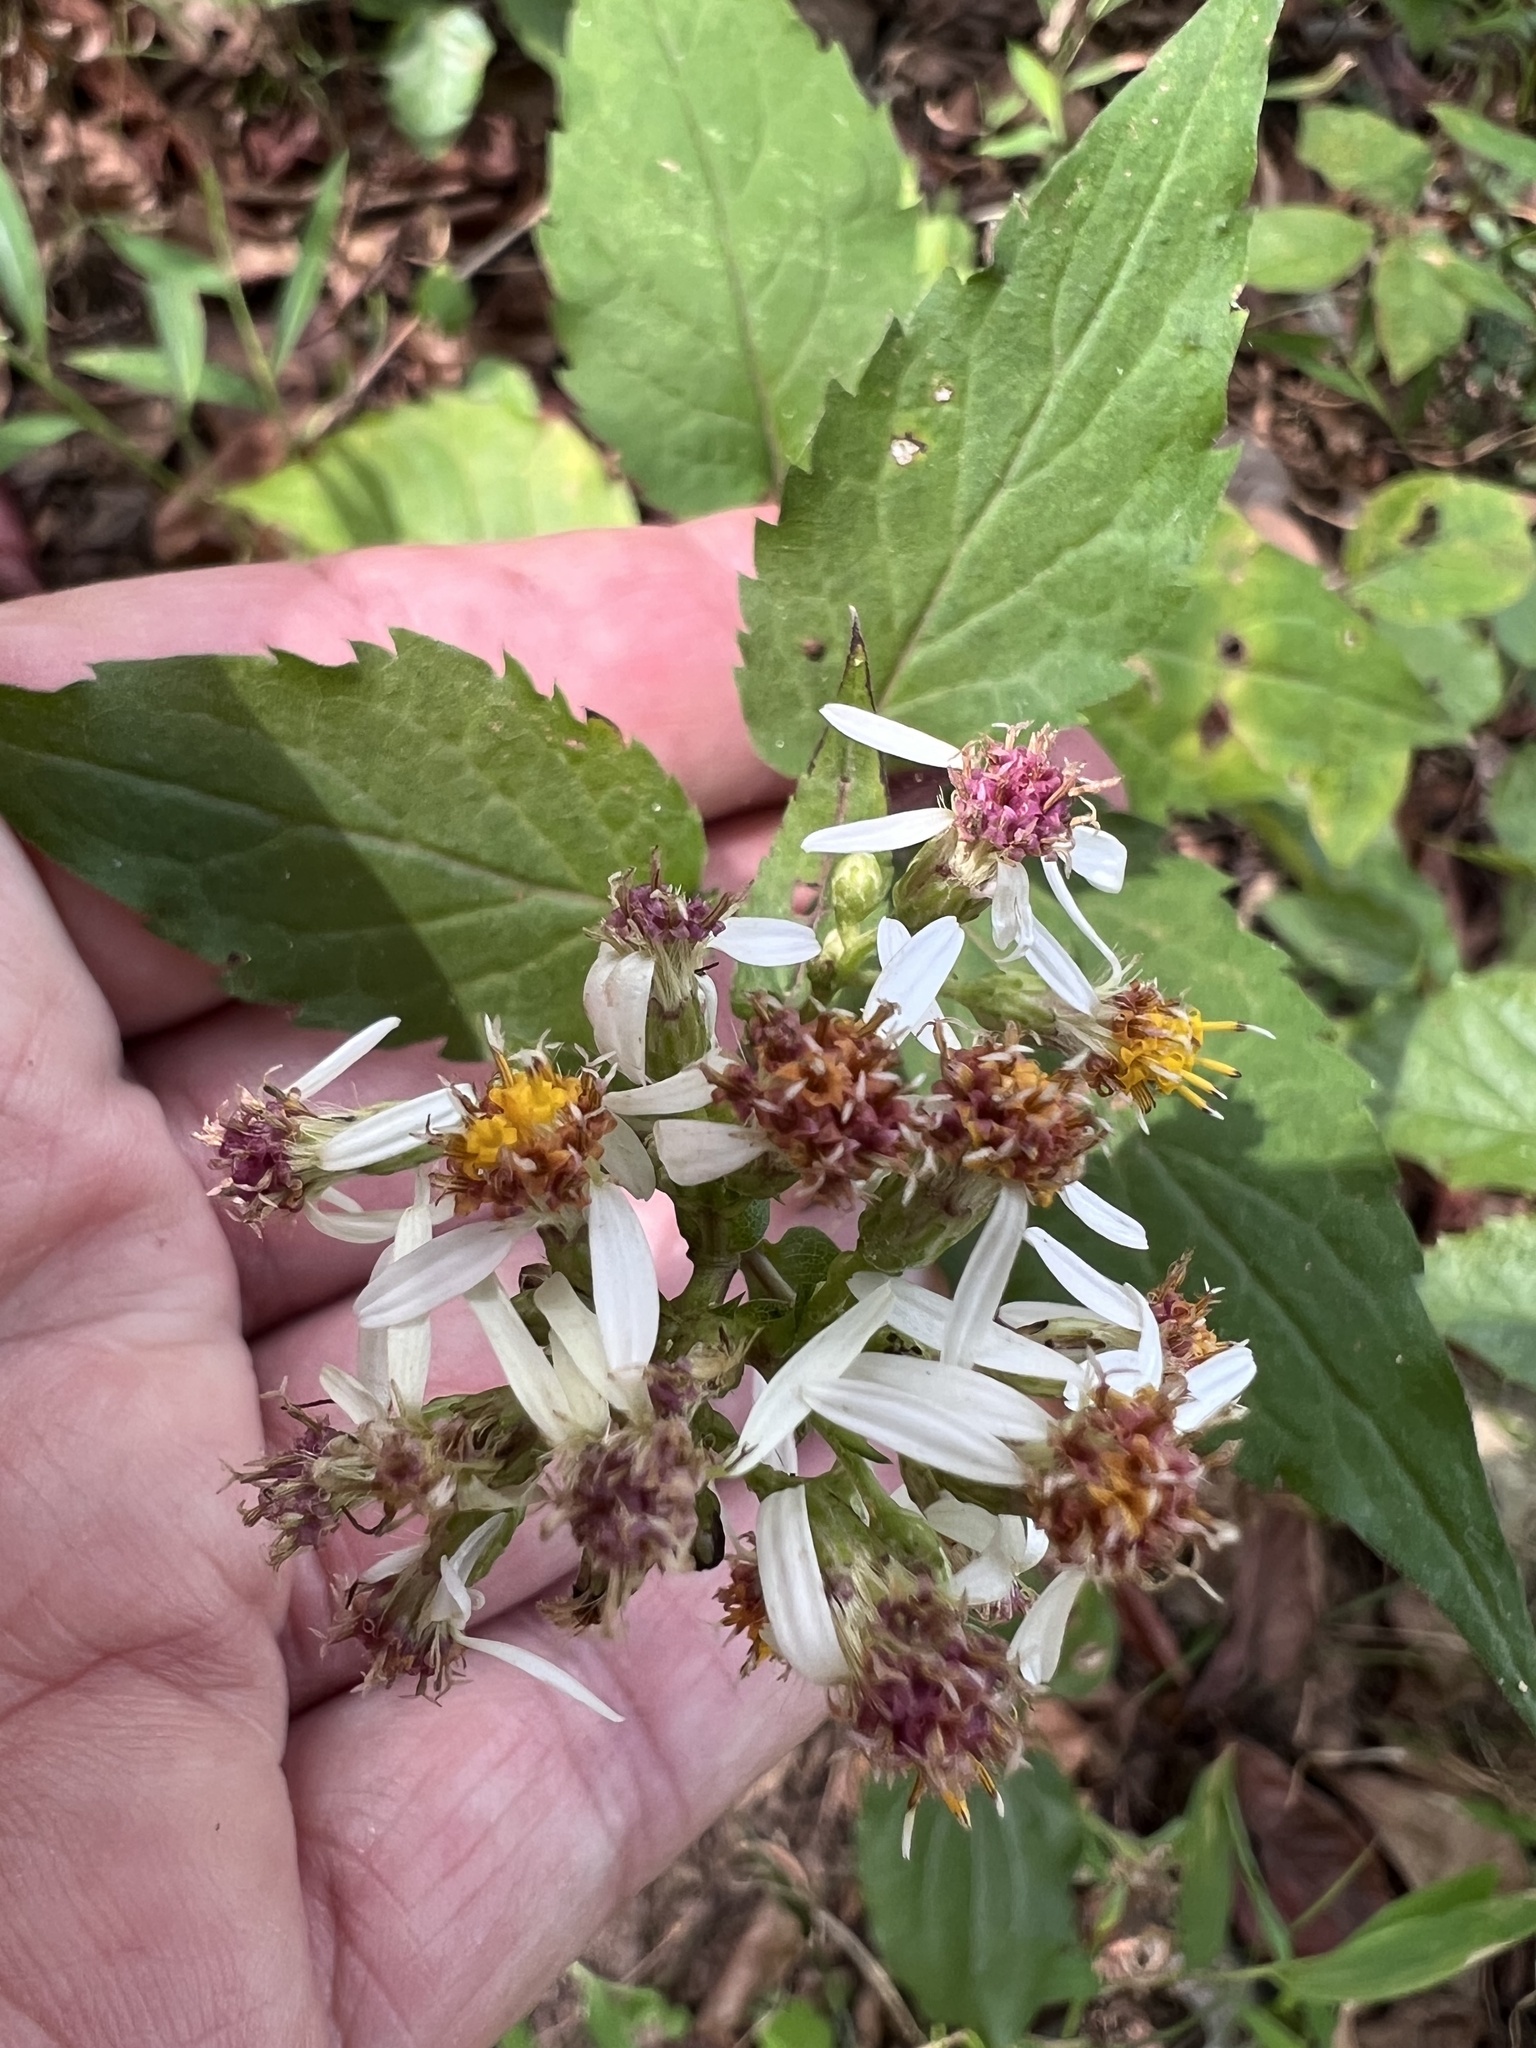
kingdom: Plantae
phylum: Tracheophyta
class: Magnoliopsida
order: Asterales
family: Asteraceae
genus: Eurybia
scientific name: Eurybia divaricata
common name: White wood aster
